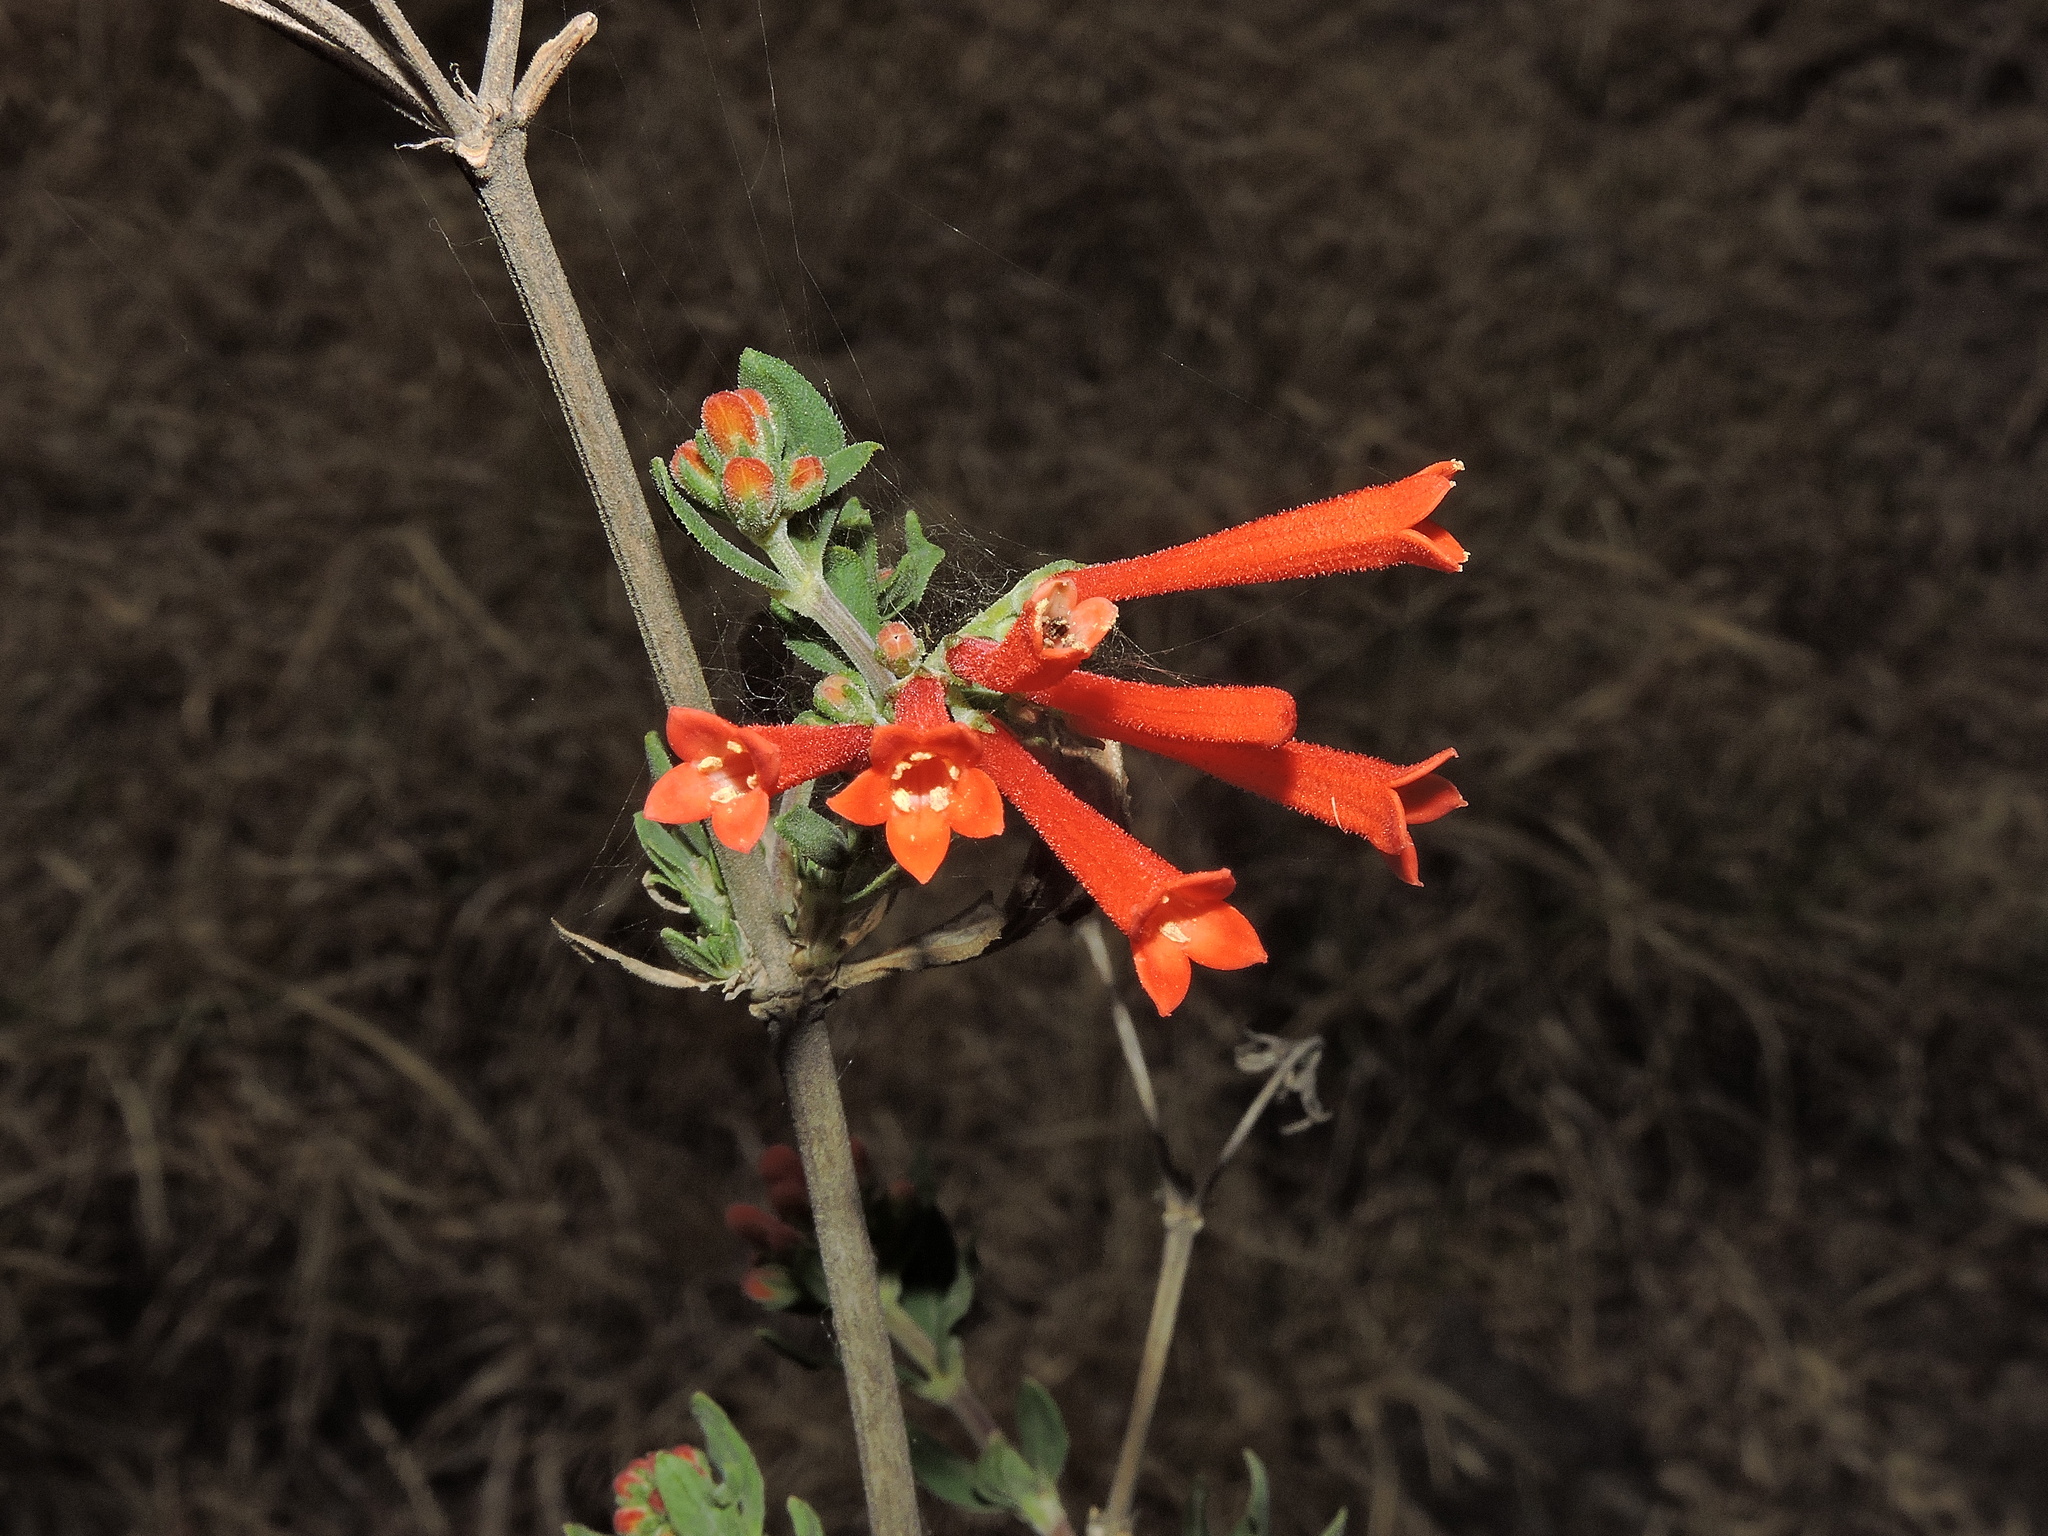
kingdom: Plantae
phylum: Tracheophyta
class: Magnoliopsida
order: Gentianales
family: Rubiaceae
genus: Bouvardia
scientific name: Bouvardia ternifolia
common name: Scarlet bouvardia
